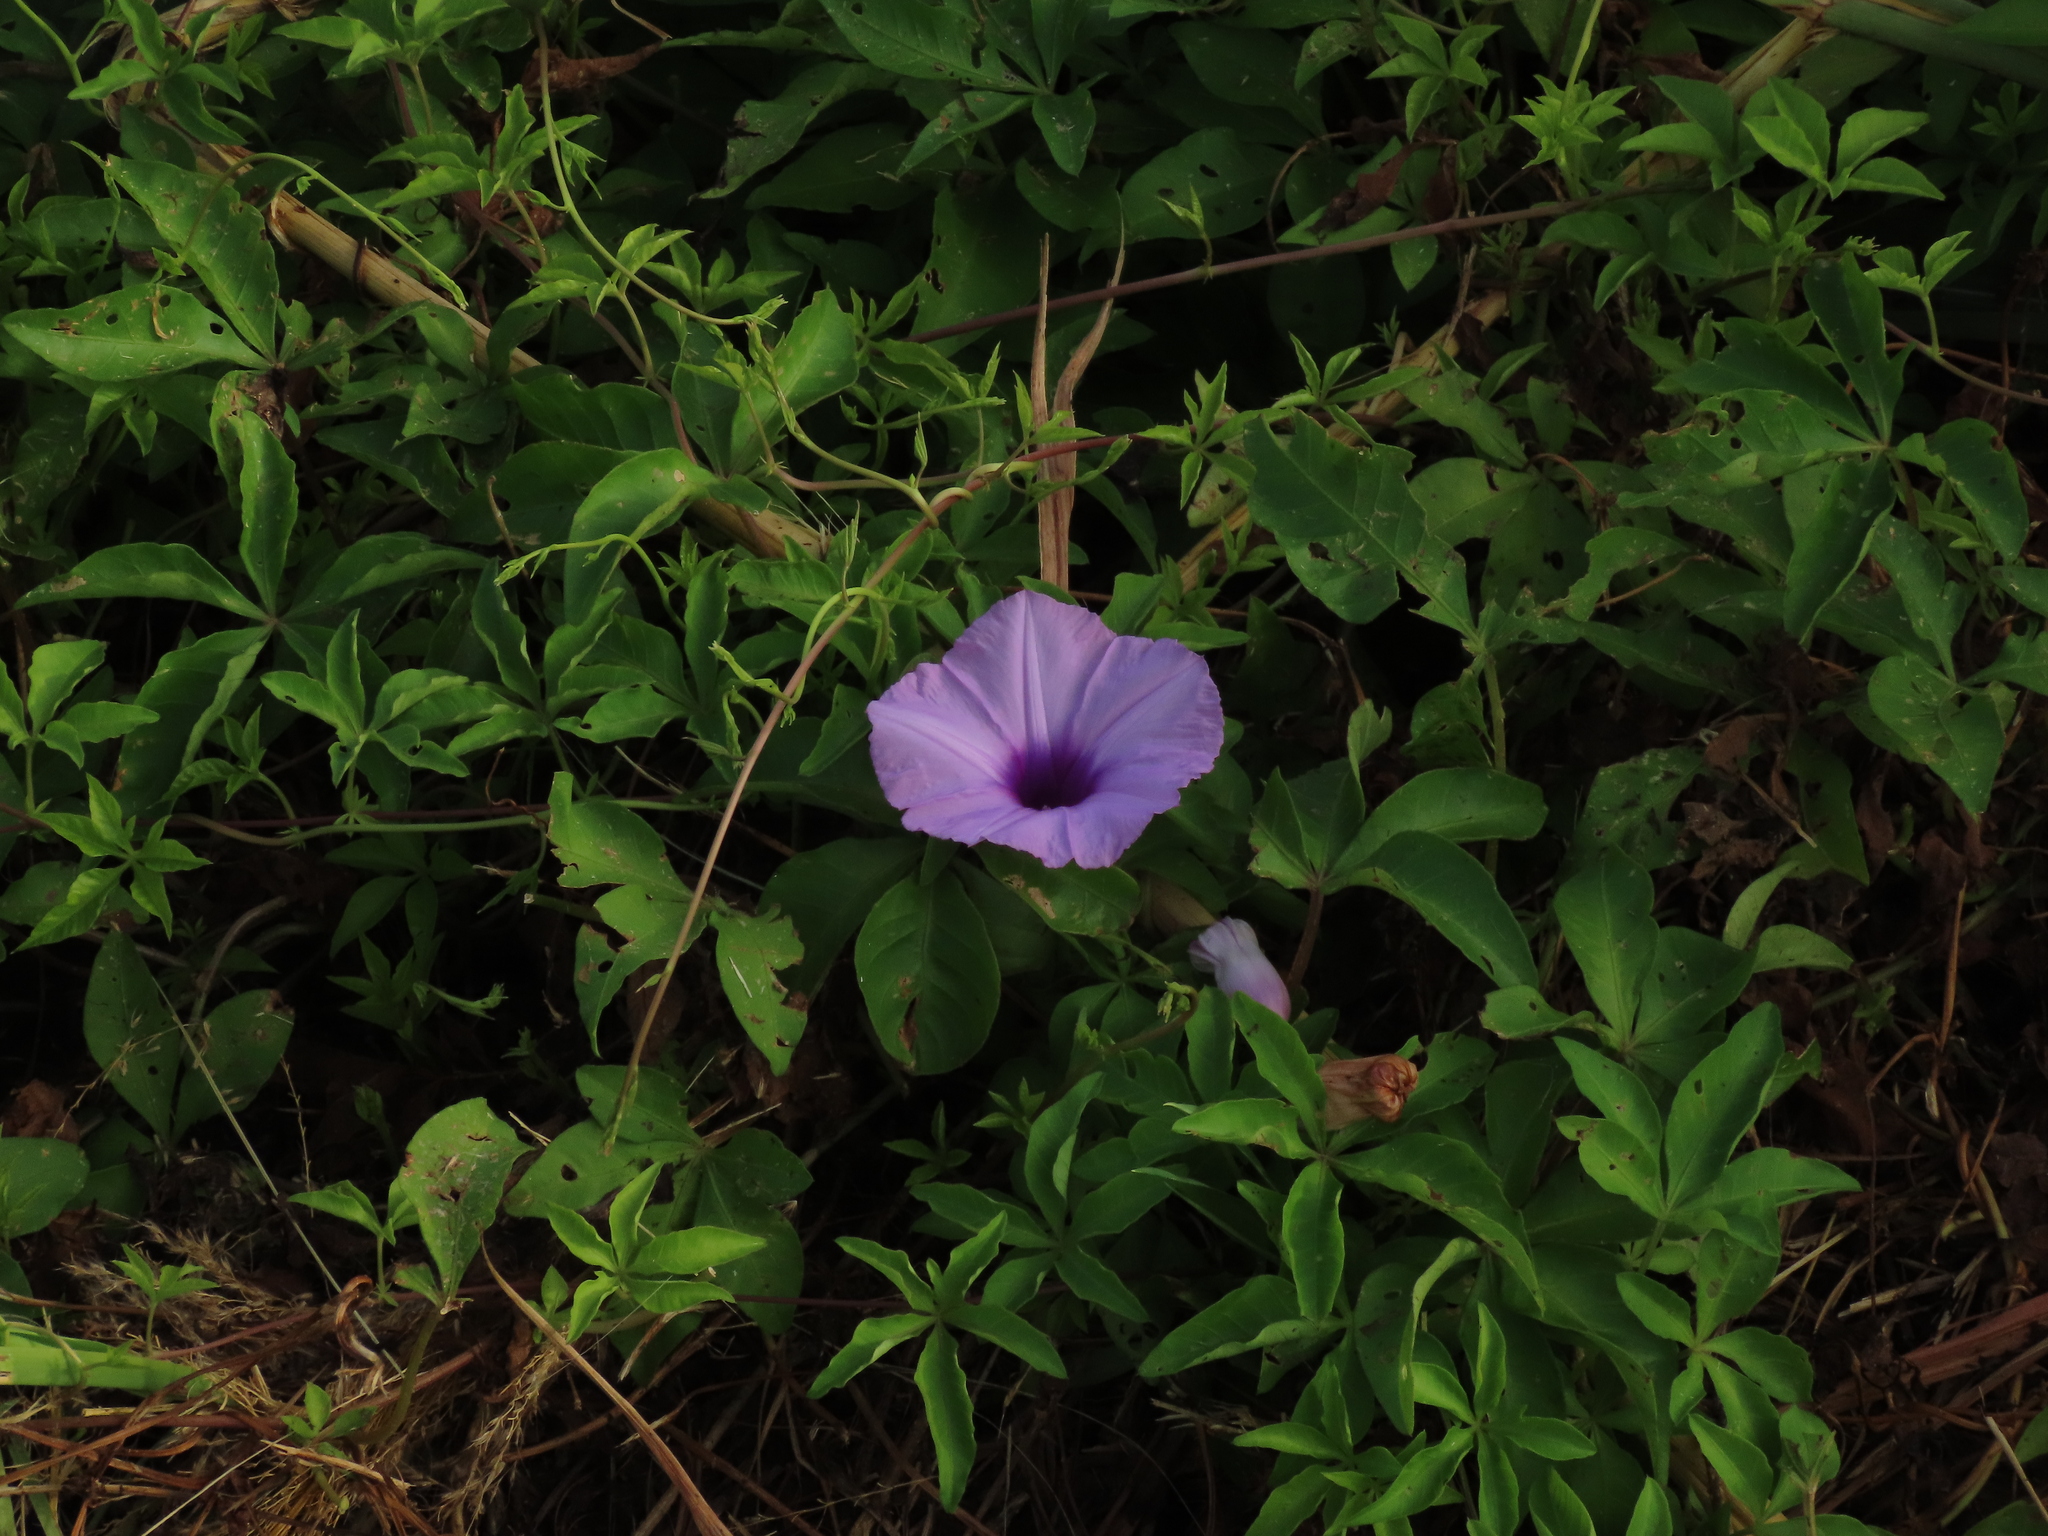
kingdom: Plantae
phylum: Tracheophyta
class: Magnoliopsida
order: Solanales
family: Convolvulaceae
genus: Ipomoea
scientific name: Ipomoea cairica
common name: Mile a minute vine
